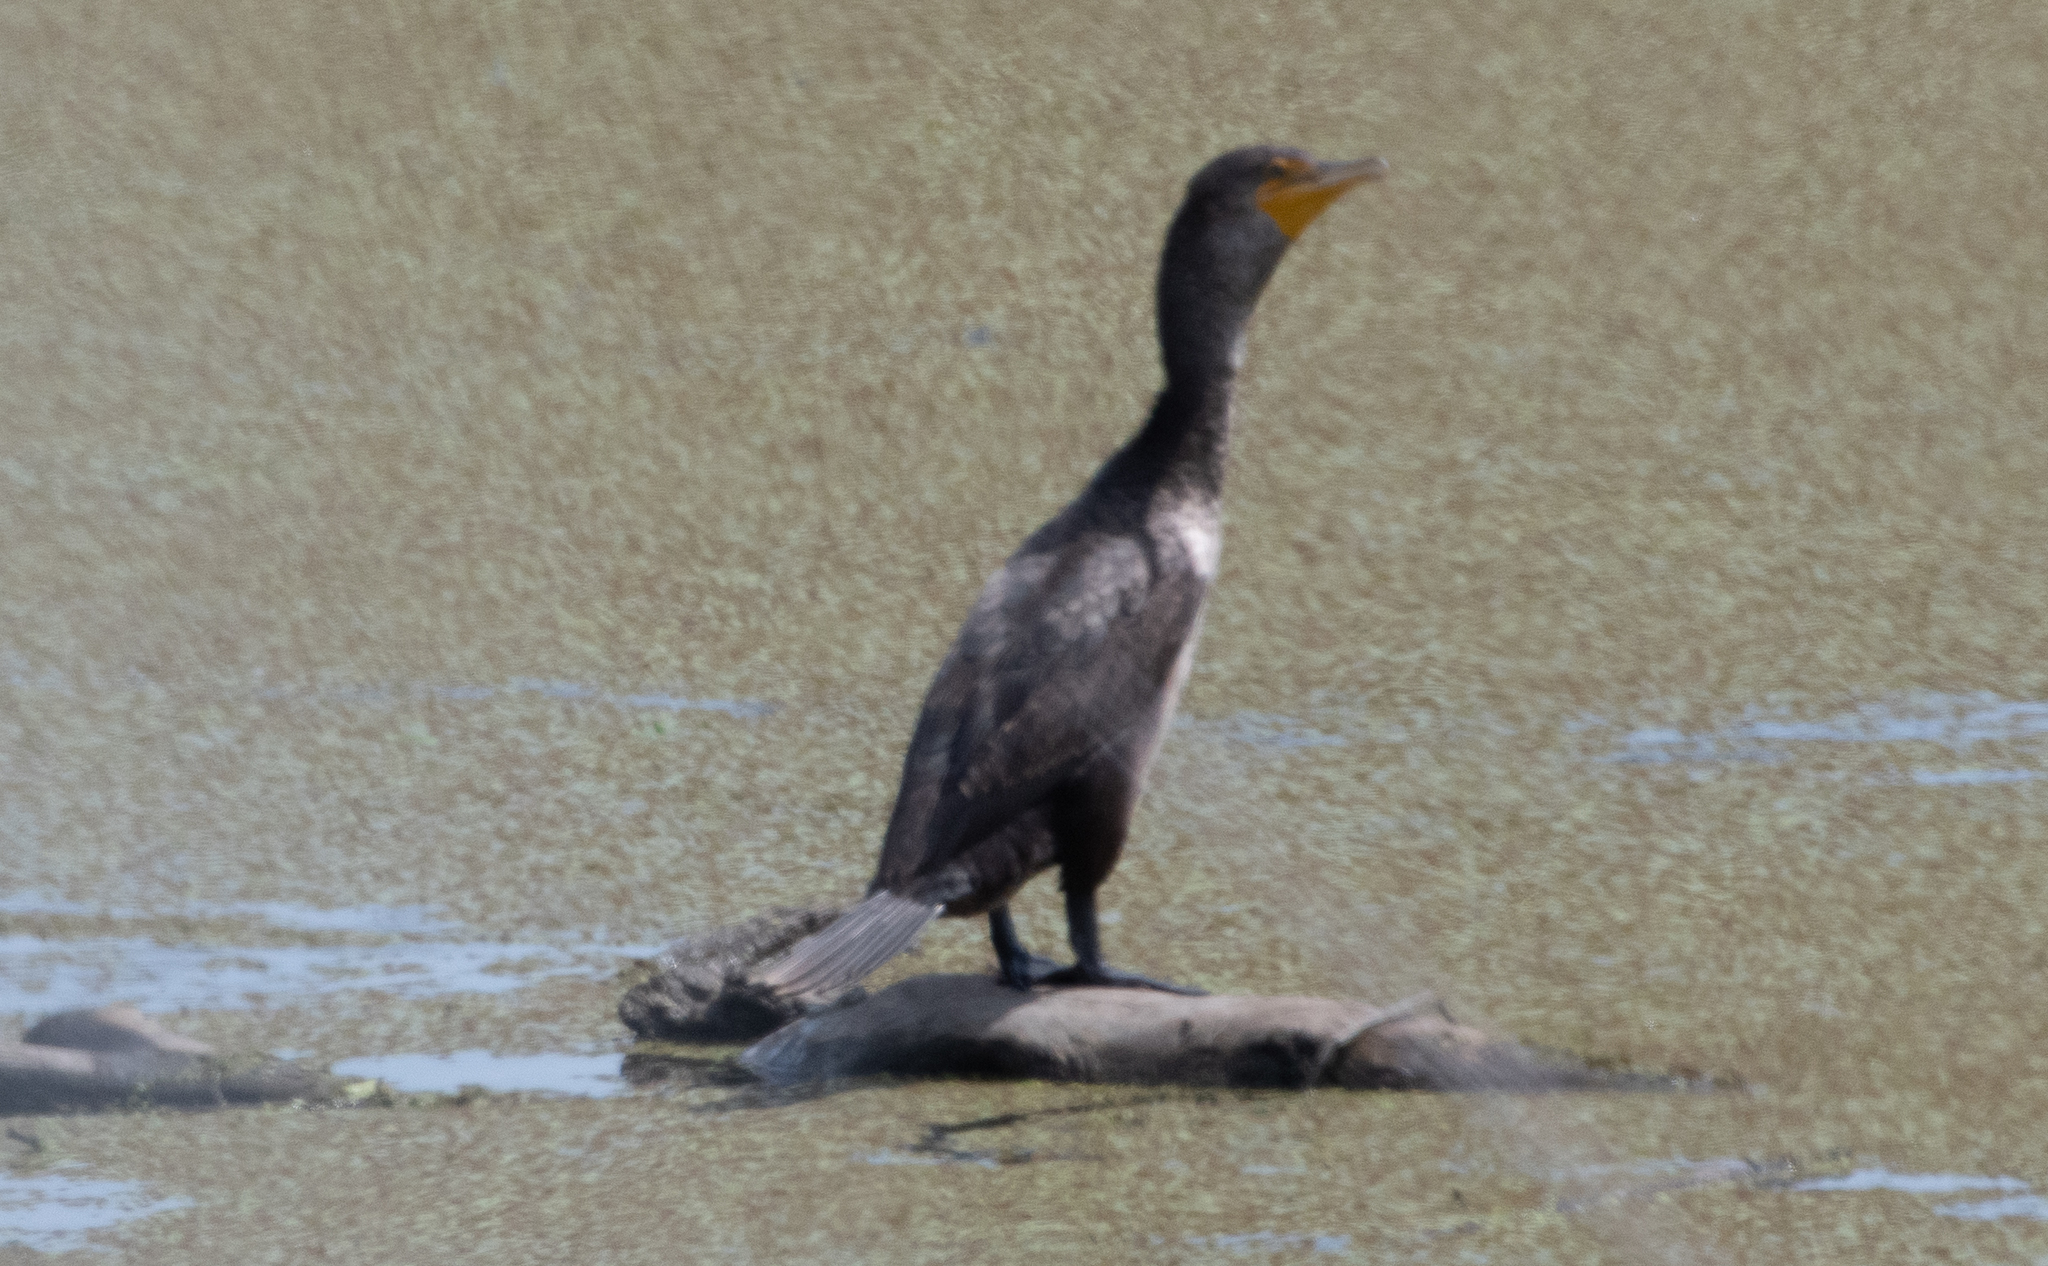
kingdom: Animalia
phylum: Chordata
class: Aves
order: Suliformes
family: Phalacrocoracidae
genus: Phalacrocorax
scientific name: Phalacrocorax auritus
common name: Double-crested cormorant
